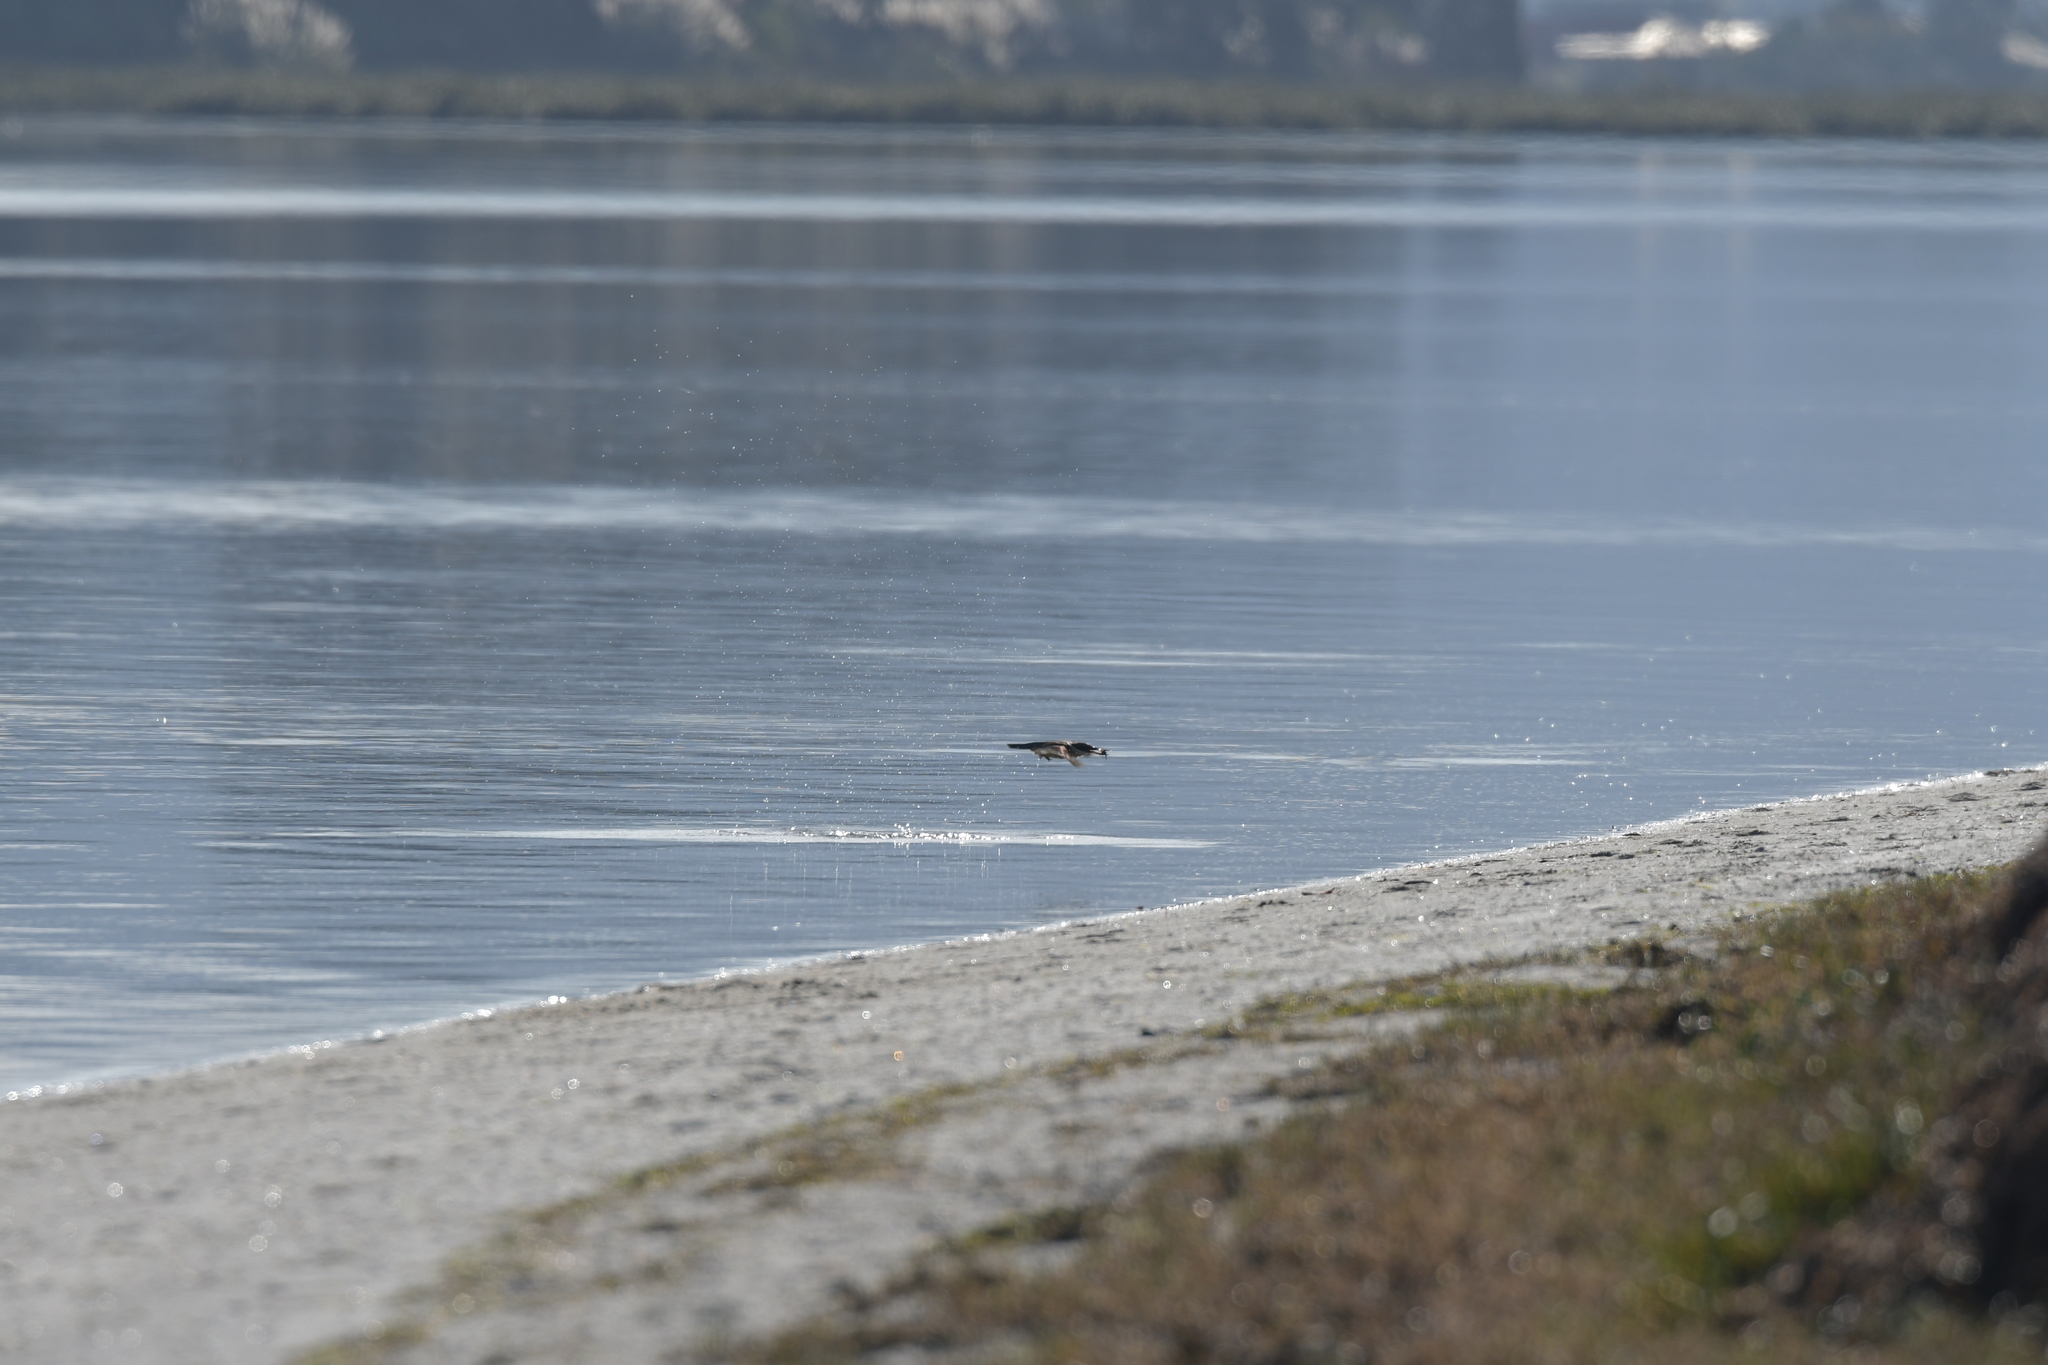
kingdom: Animalia
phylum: Chordata
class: Aves
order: Coraciiformes
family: Alcedinidae
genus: Todiramphus
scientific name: Todiramphus sanctus
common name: Sacred kingfisher
